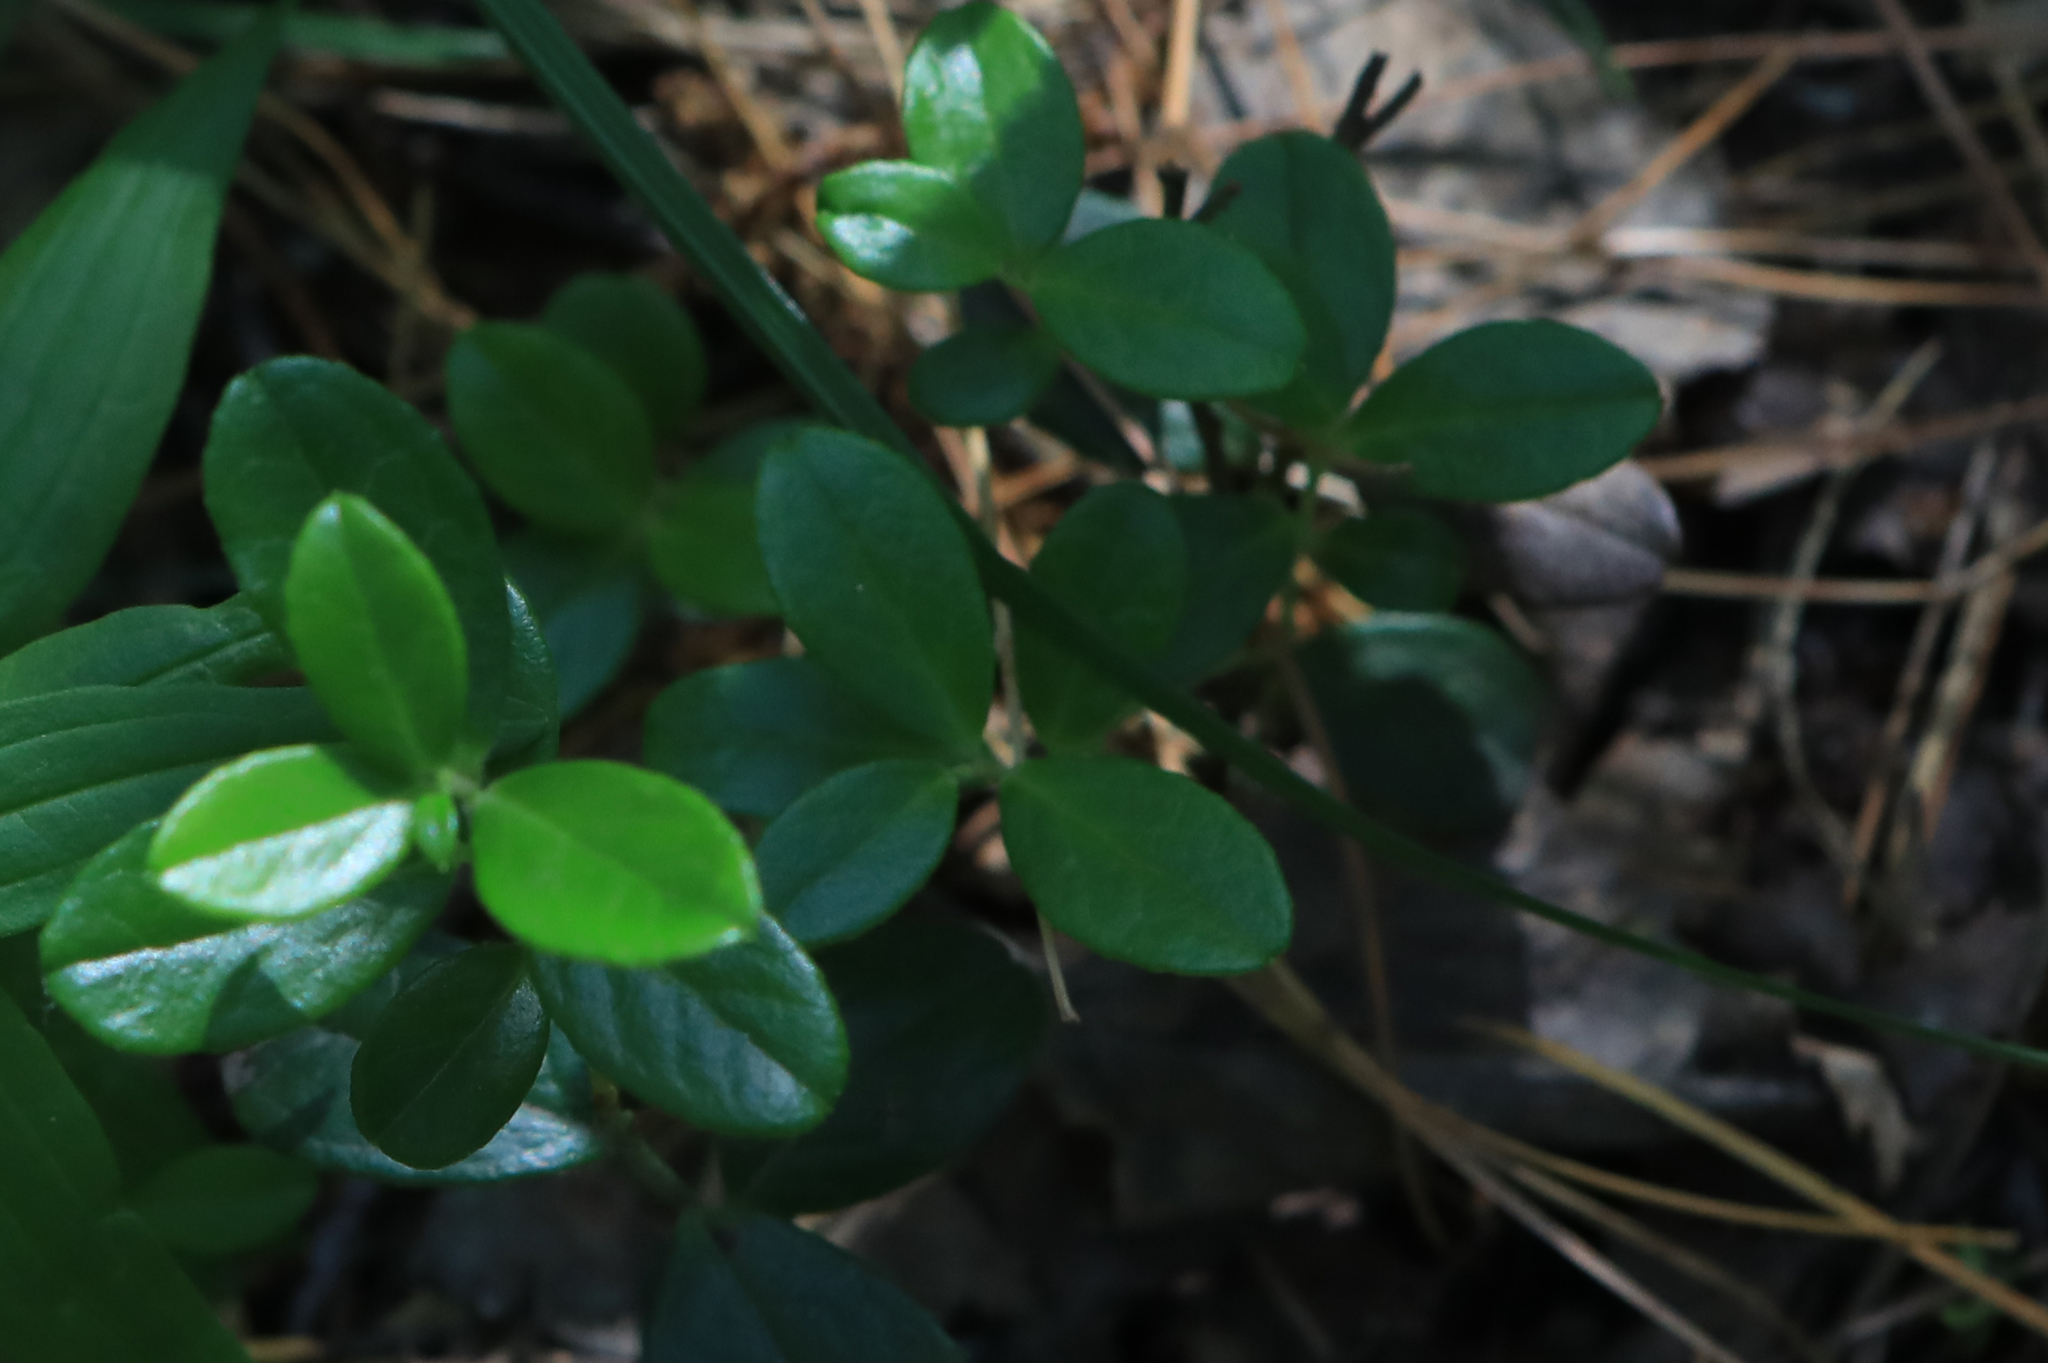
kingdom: Plantae
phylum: Tracheophyta
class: Magnoliopsida
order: Ericales
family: Ericaceae
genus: Vaccinium
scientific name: Vaccinium vitis-idaea
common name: Cowberry
